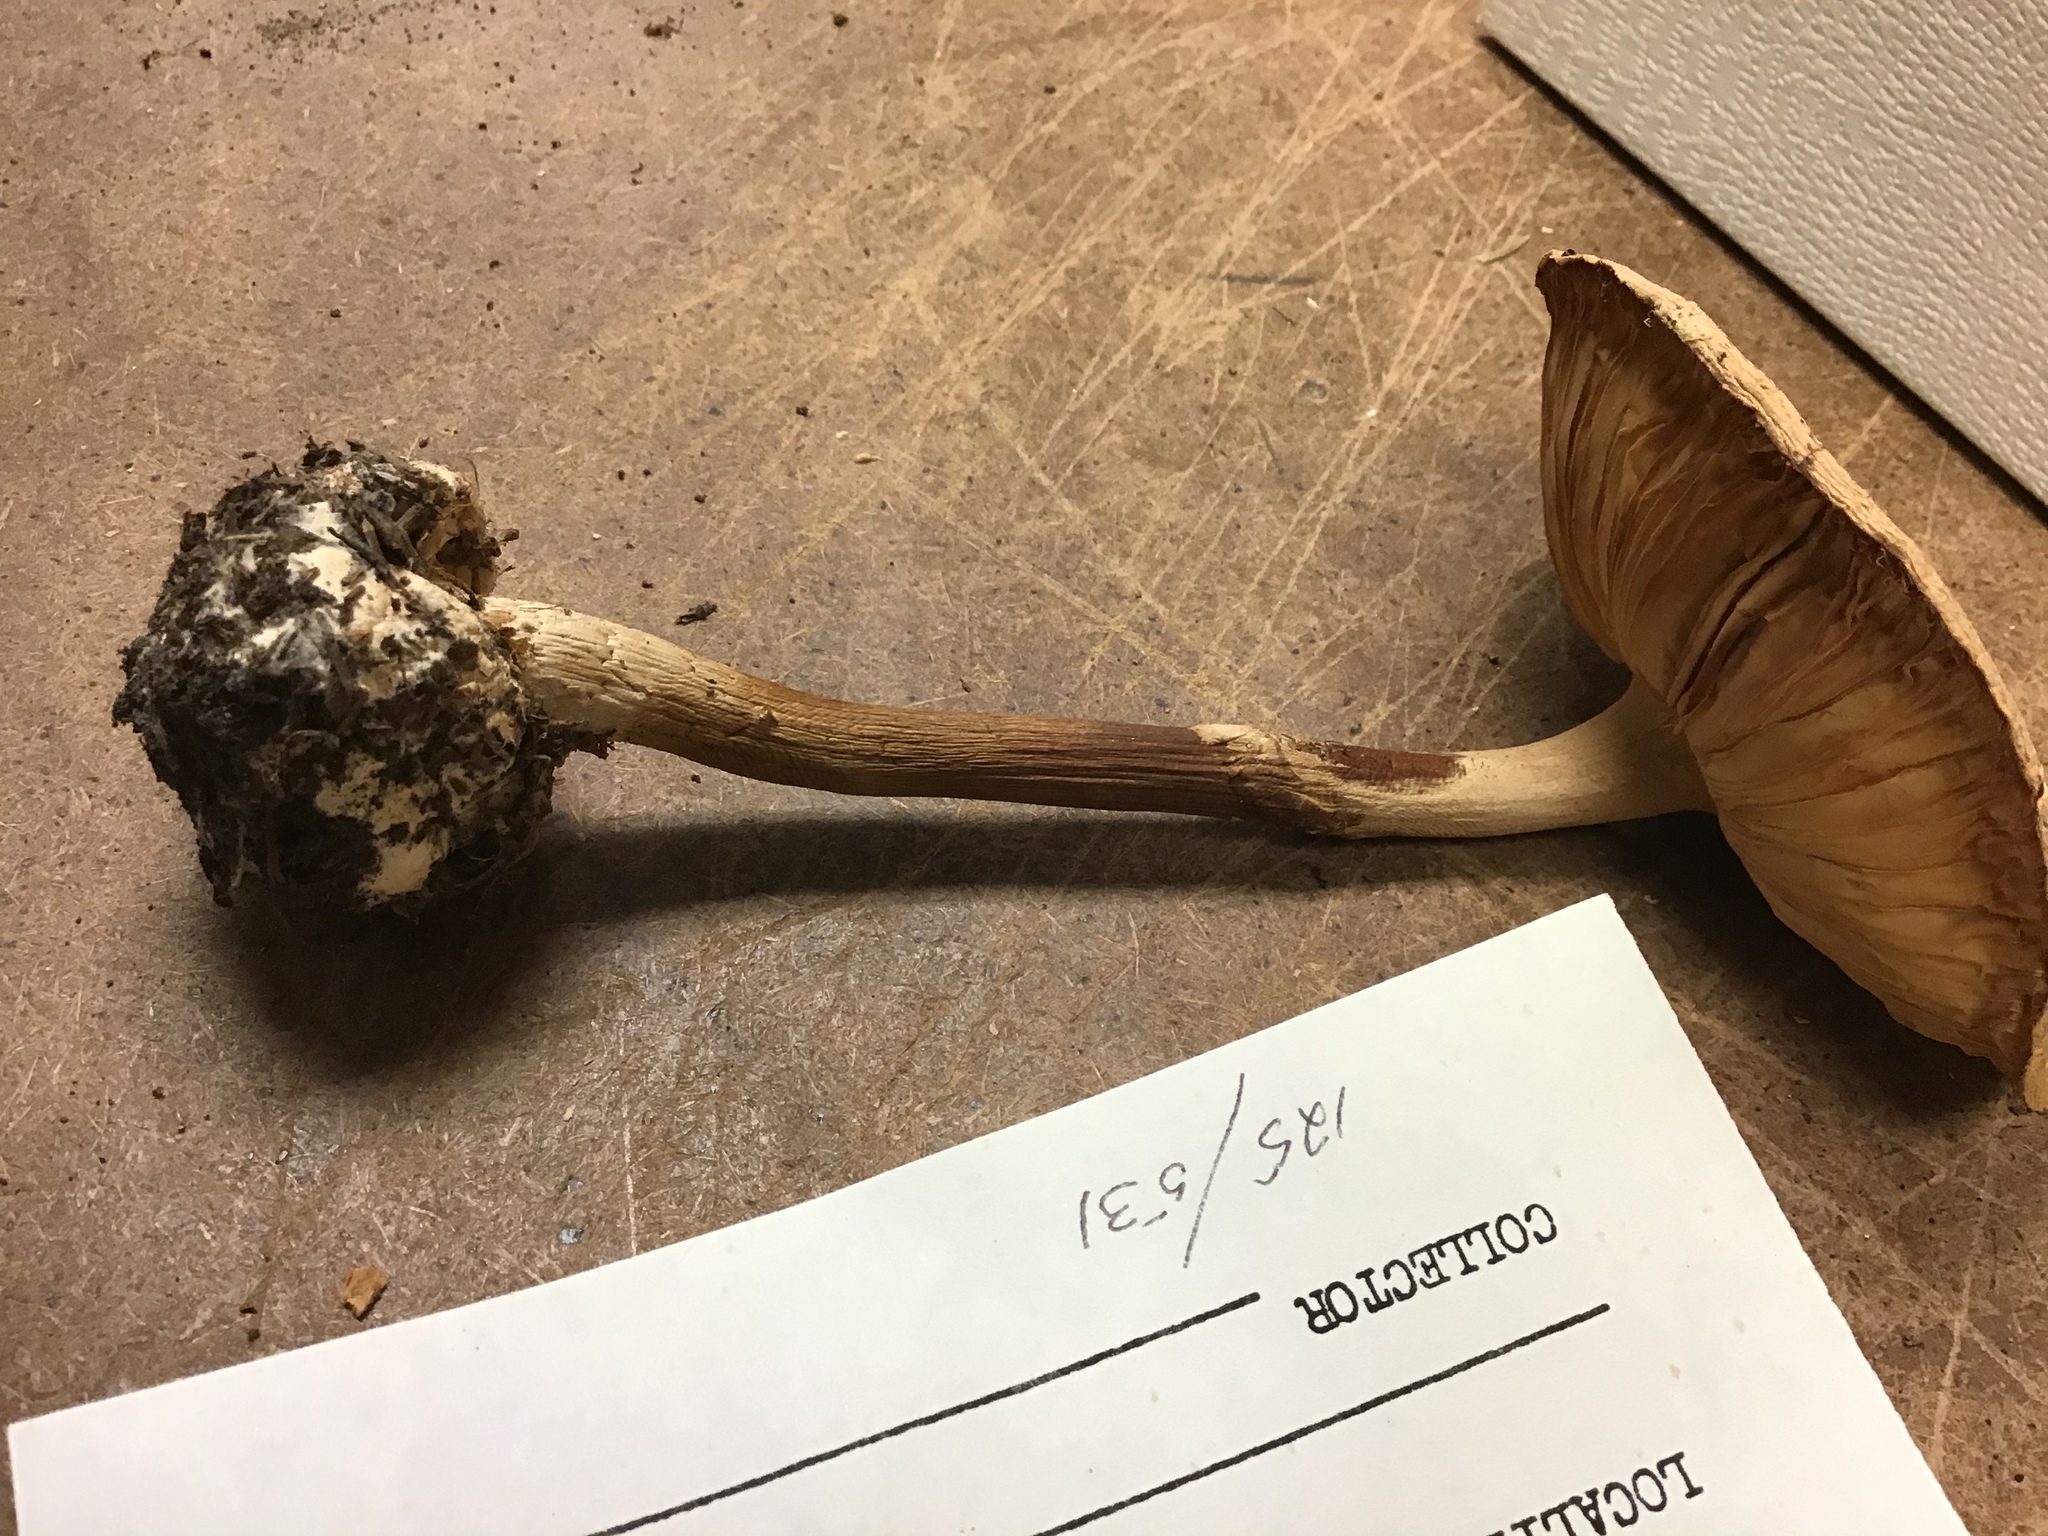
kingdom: Fungi
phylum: Basidiomycota
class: Agaricomycetes
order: Agaricales
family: Amanitaceae
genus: Amanita
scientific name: Amanita lavendula
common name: Coker's lavender staining amanita
